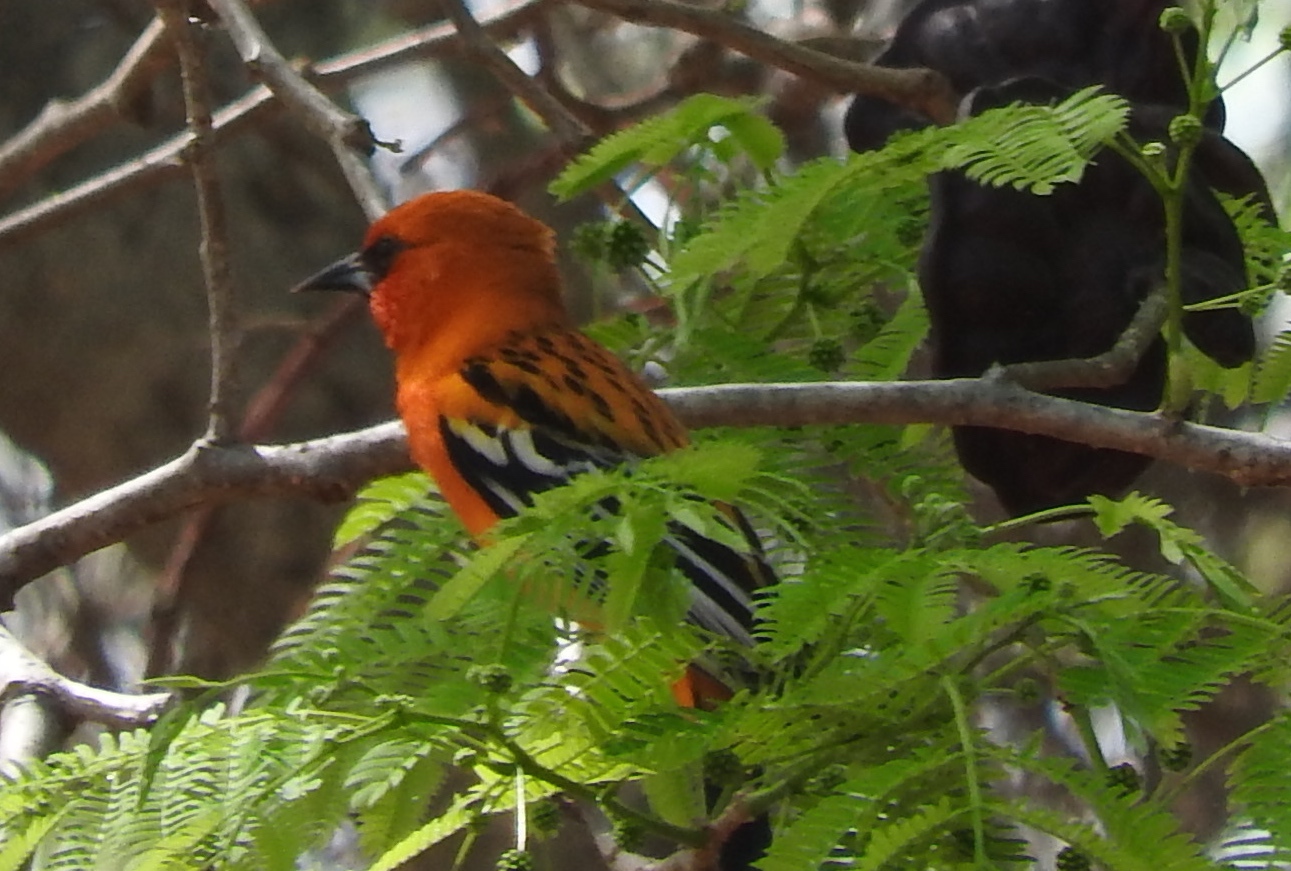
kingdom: Animalia
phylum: Chordata
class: Aves
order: Passeriformes
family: Icteridae
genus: Icterus
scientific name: Icterus pustulatus
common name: Streak-backed oriole
